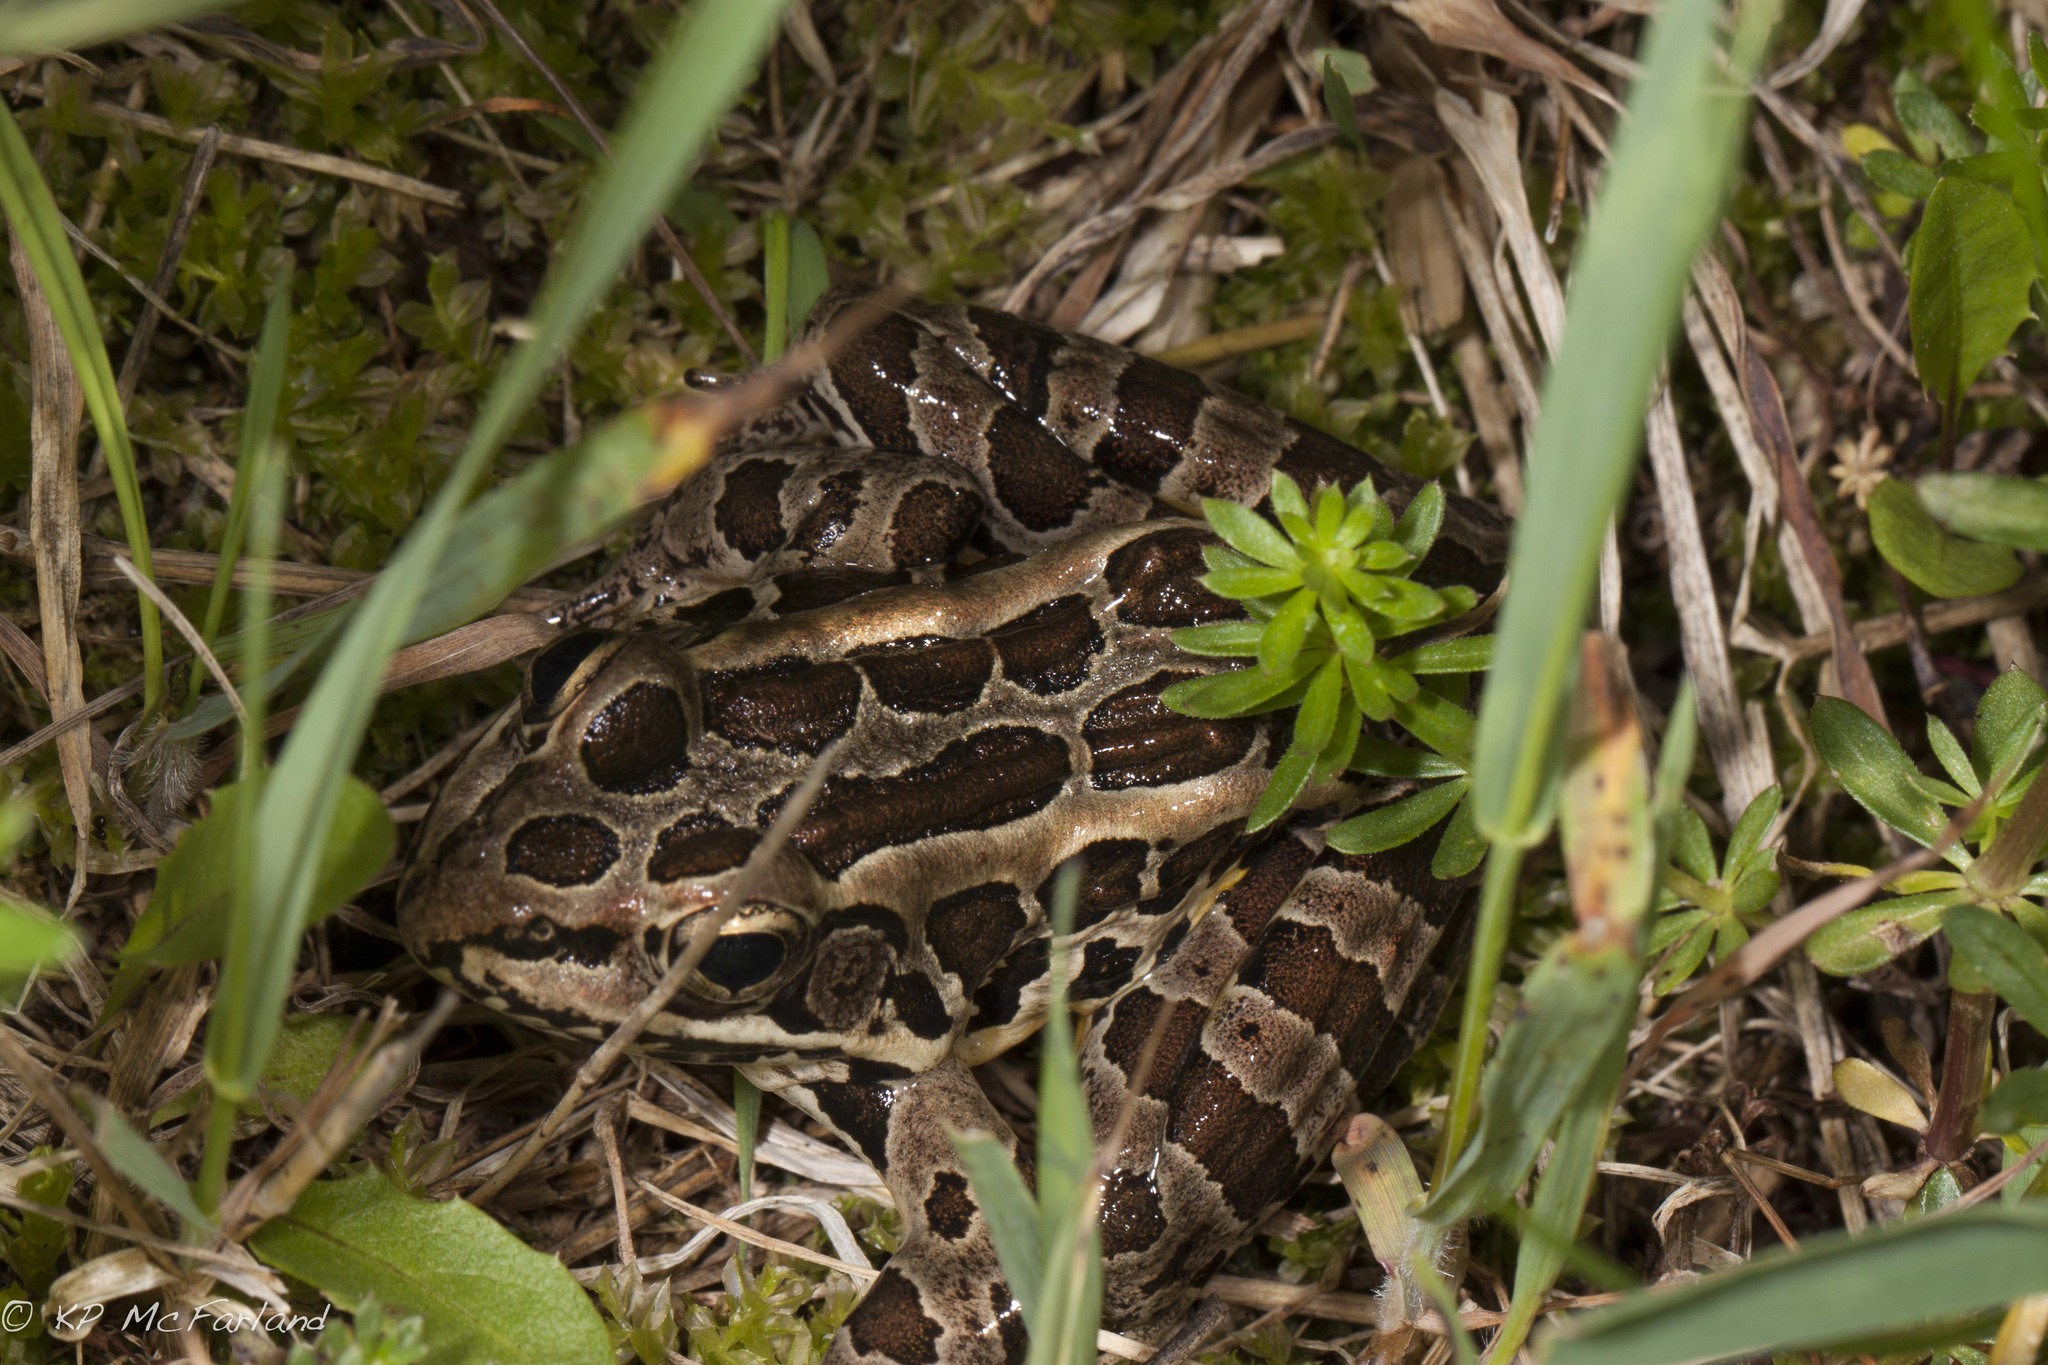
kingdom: Animalia
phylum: Chordata
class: Amphibia
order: Anura
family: Ranidae
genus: Lithobates
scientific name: Lithobates palustris
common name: Pickerel frog
